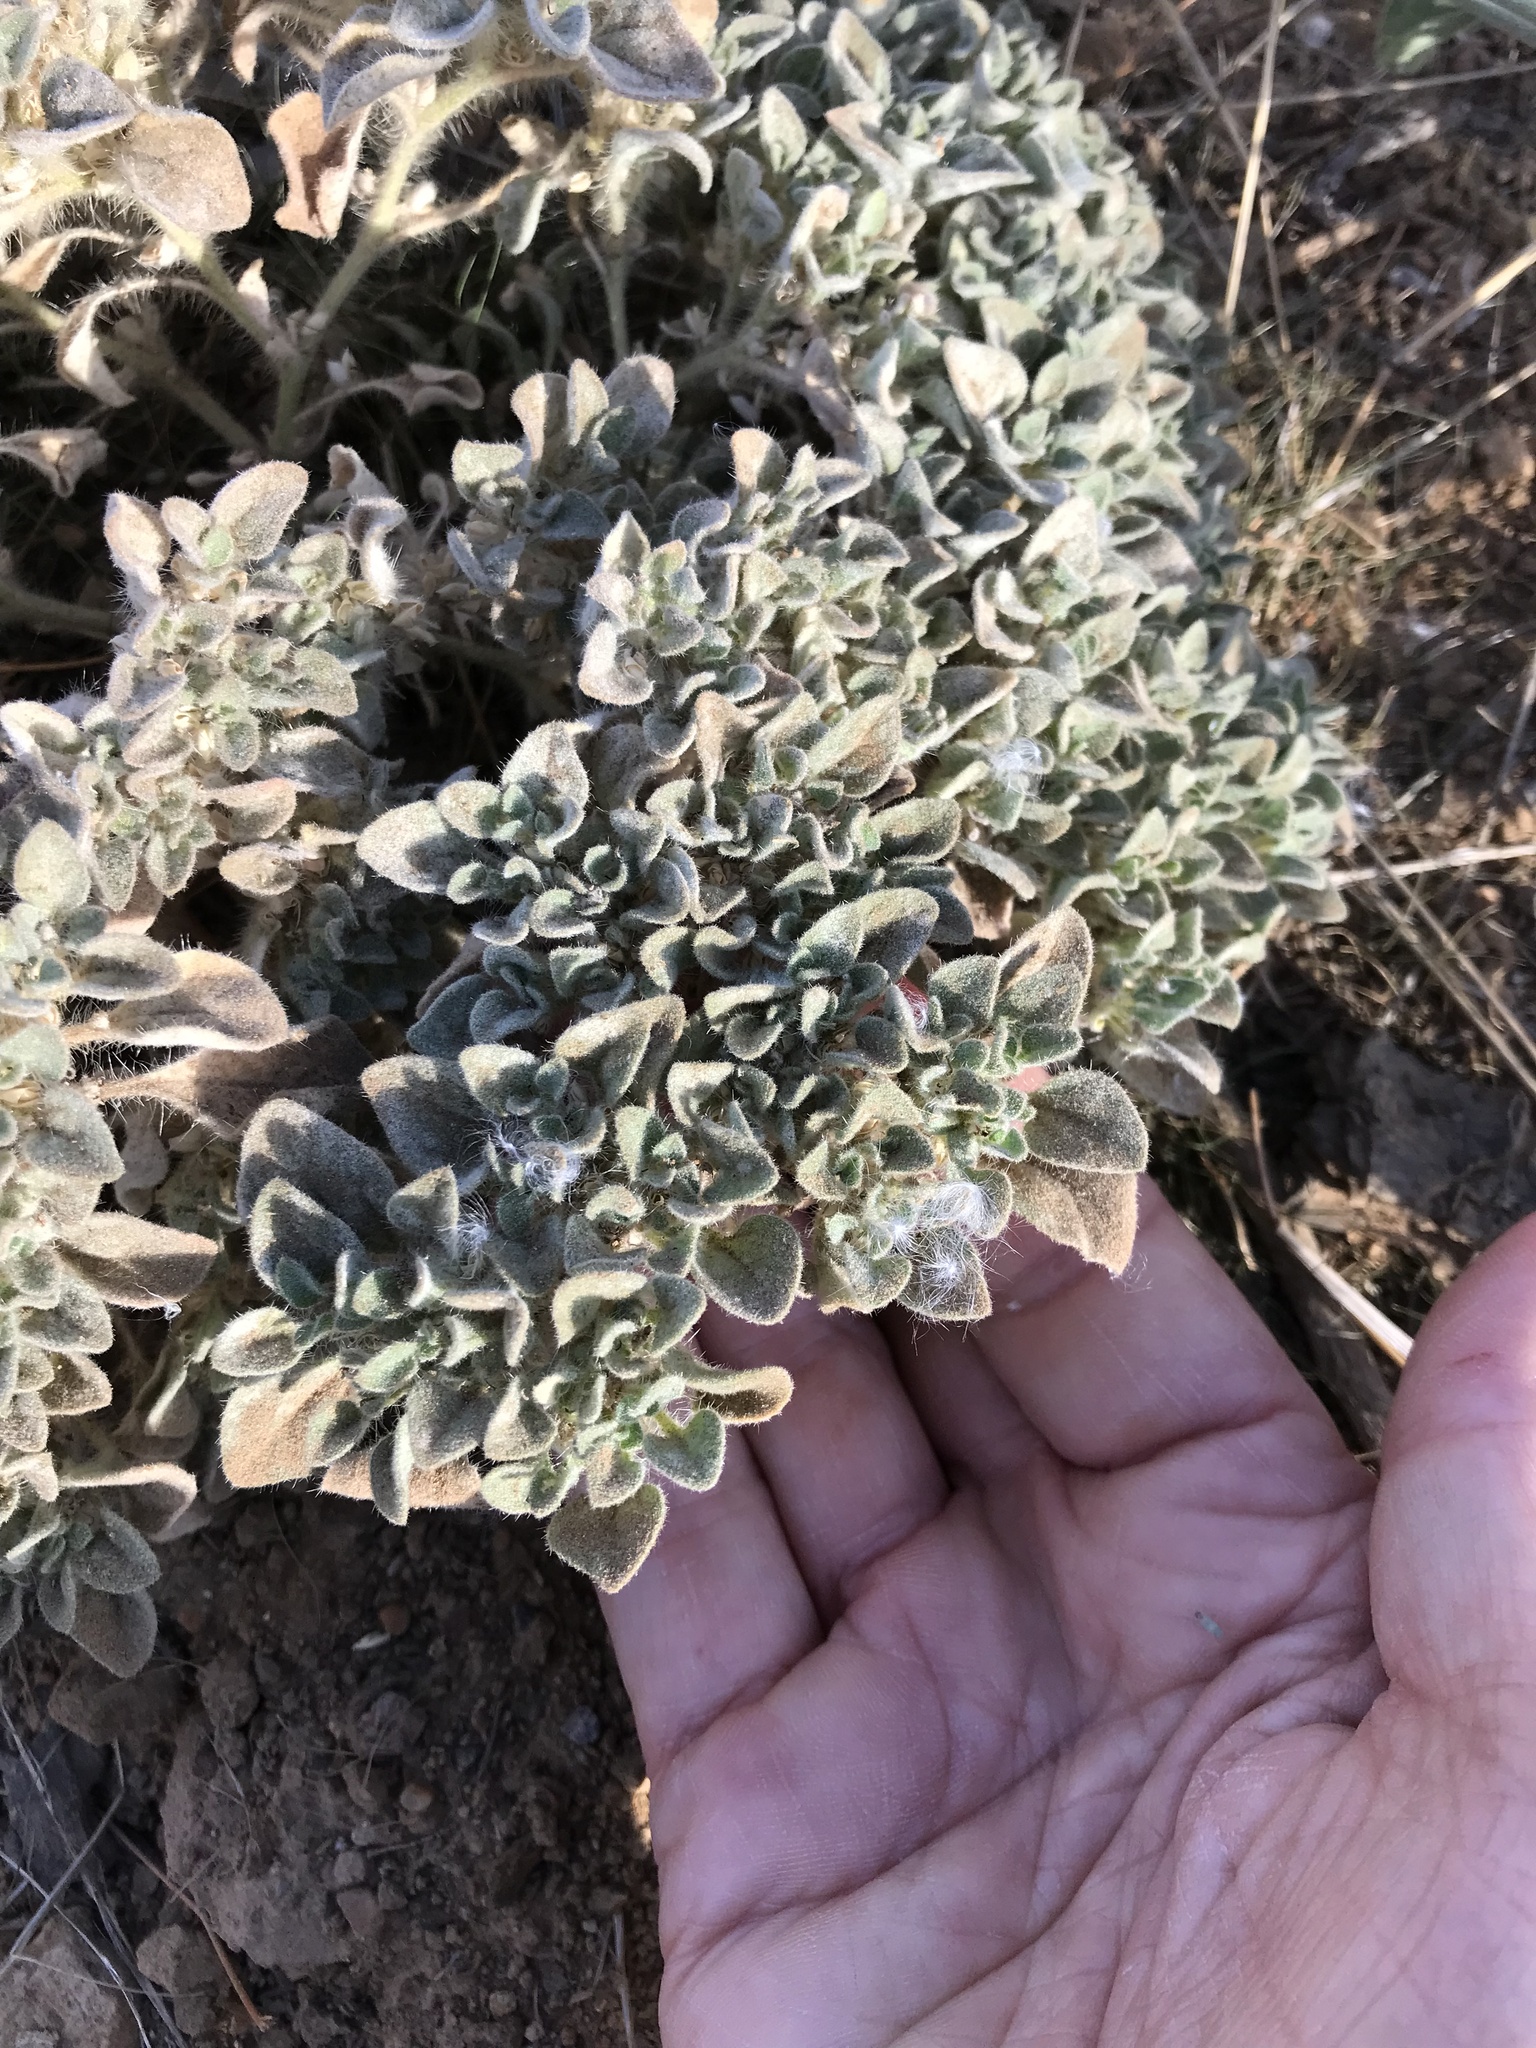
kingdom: Plantae
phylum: Tracheophyta
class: Magnoliopsida
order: Malpighiales
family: Euphorbiaceae
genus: Croton
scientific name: Croton setiger
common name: Dove weed
